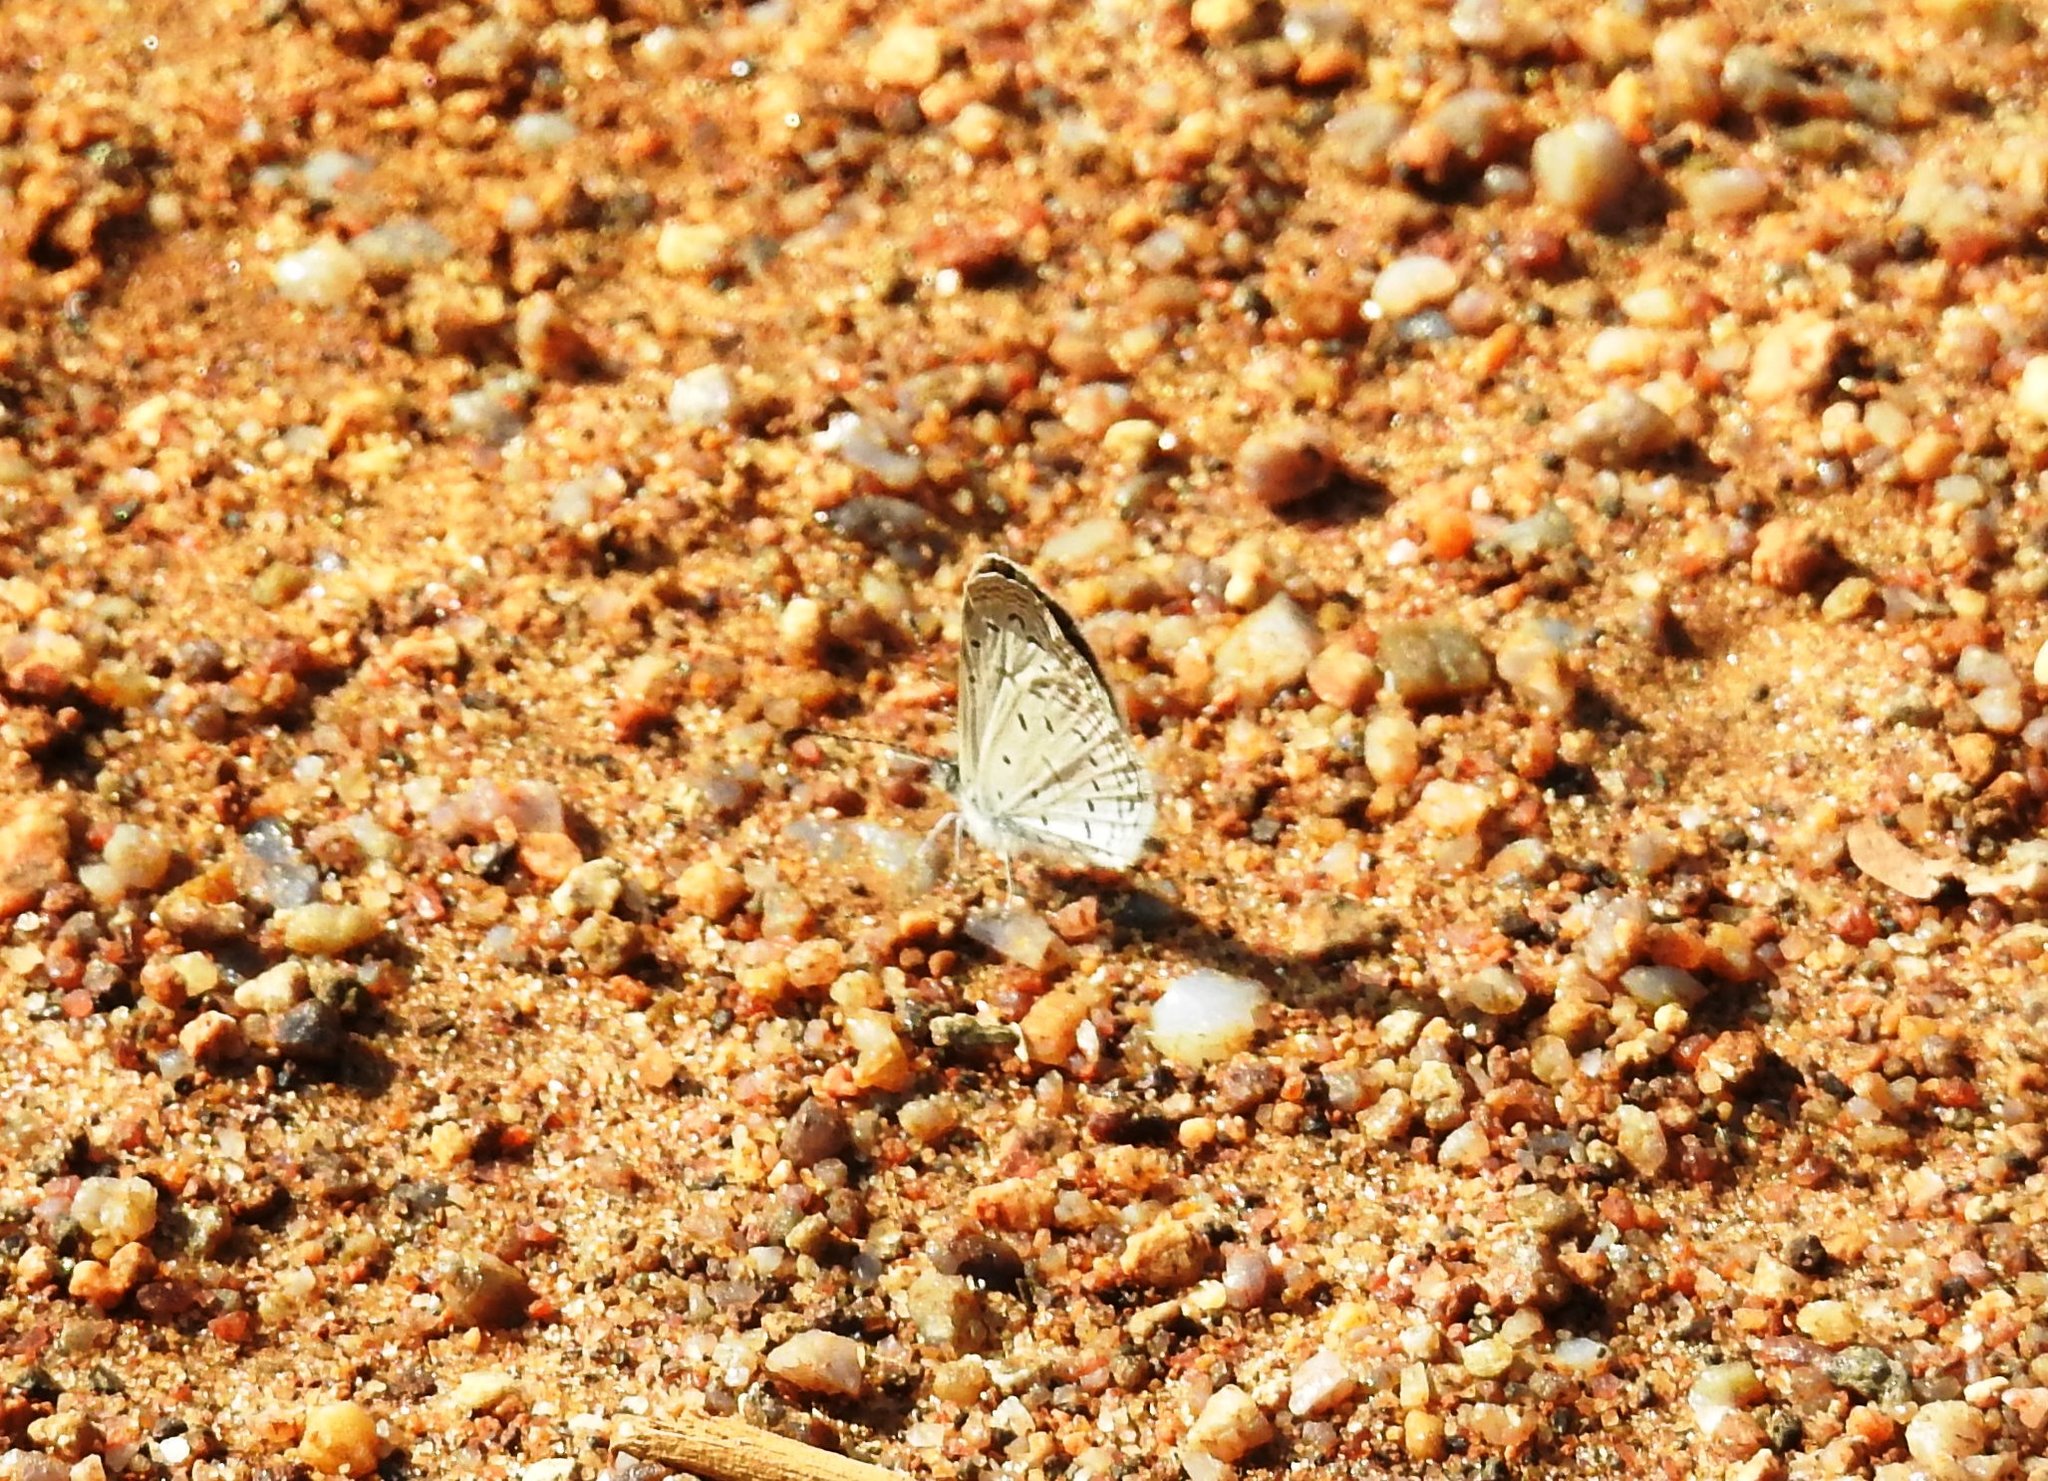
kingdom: Animalia
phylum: Arthropoda
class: Insecta
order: Lepidoptera
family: Lycaenidae
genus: Zizula
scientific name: Zizula hylax
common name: Gaika blue
